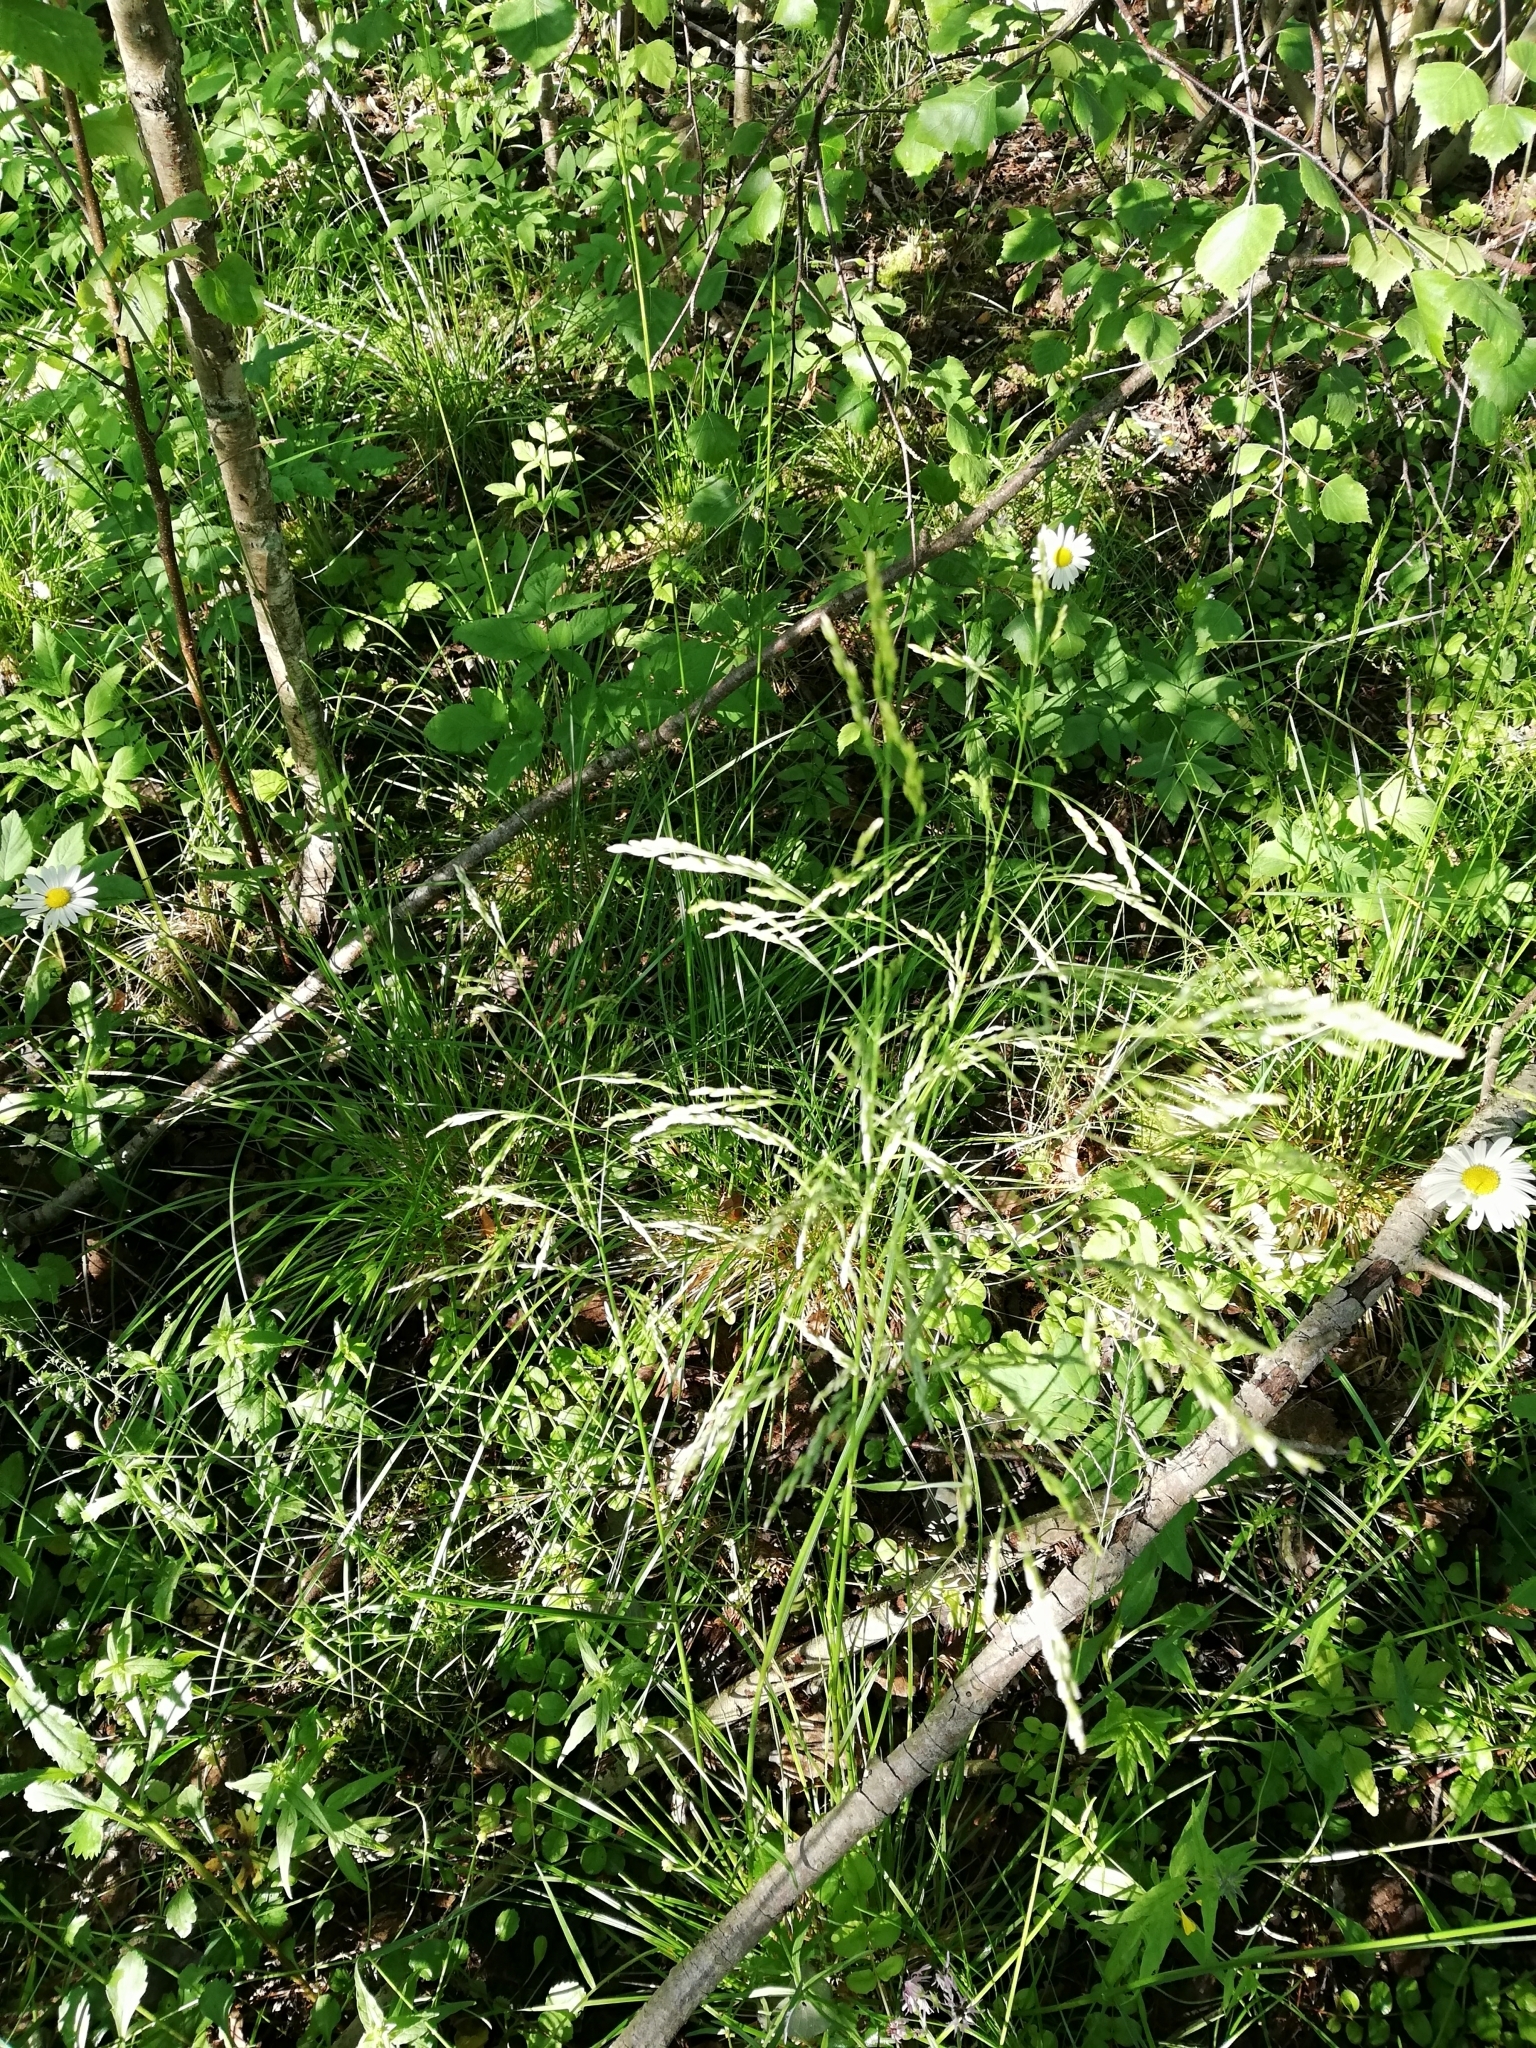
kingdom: Plantae
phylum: Tracheophyta
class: Liliopsida
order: Poales
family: Poaceae
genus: Deschampsia
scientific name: Deschampsia cespitosa
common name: Tufted hair-grass
